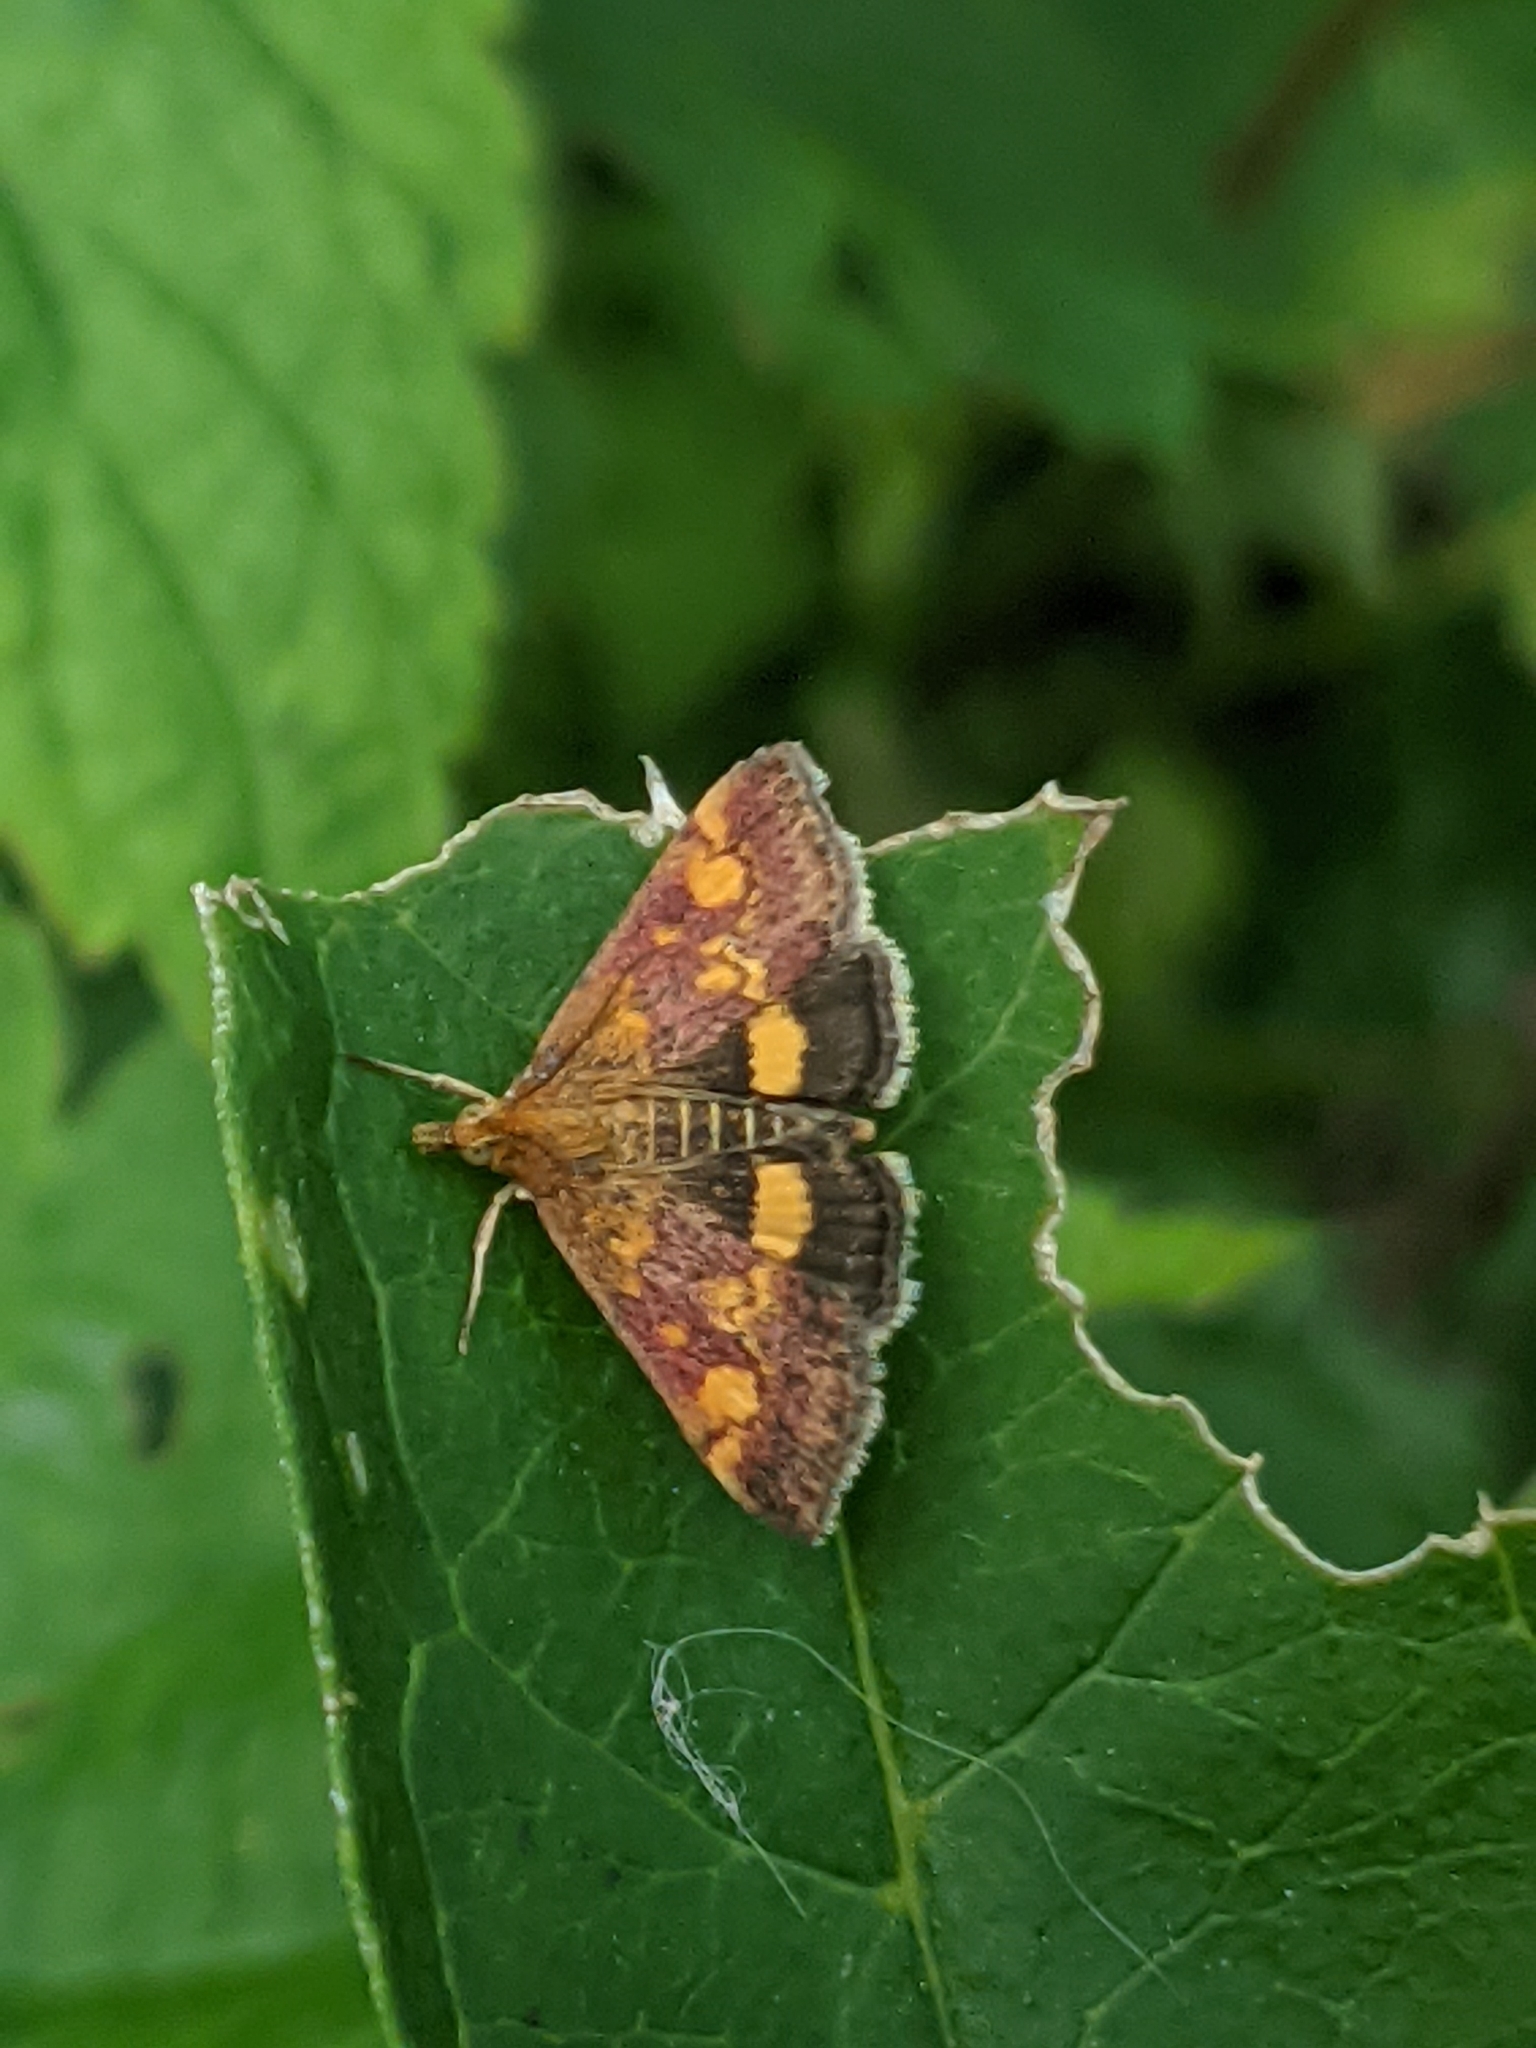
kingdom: Animalia
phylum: Arthropoda
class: Insecta
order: Lepidoptera
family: Crambidae
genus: Pyrausta
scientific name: Pyrausta aurata
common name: Small purple & gold
